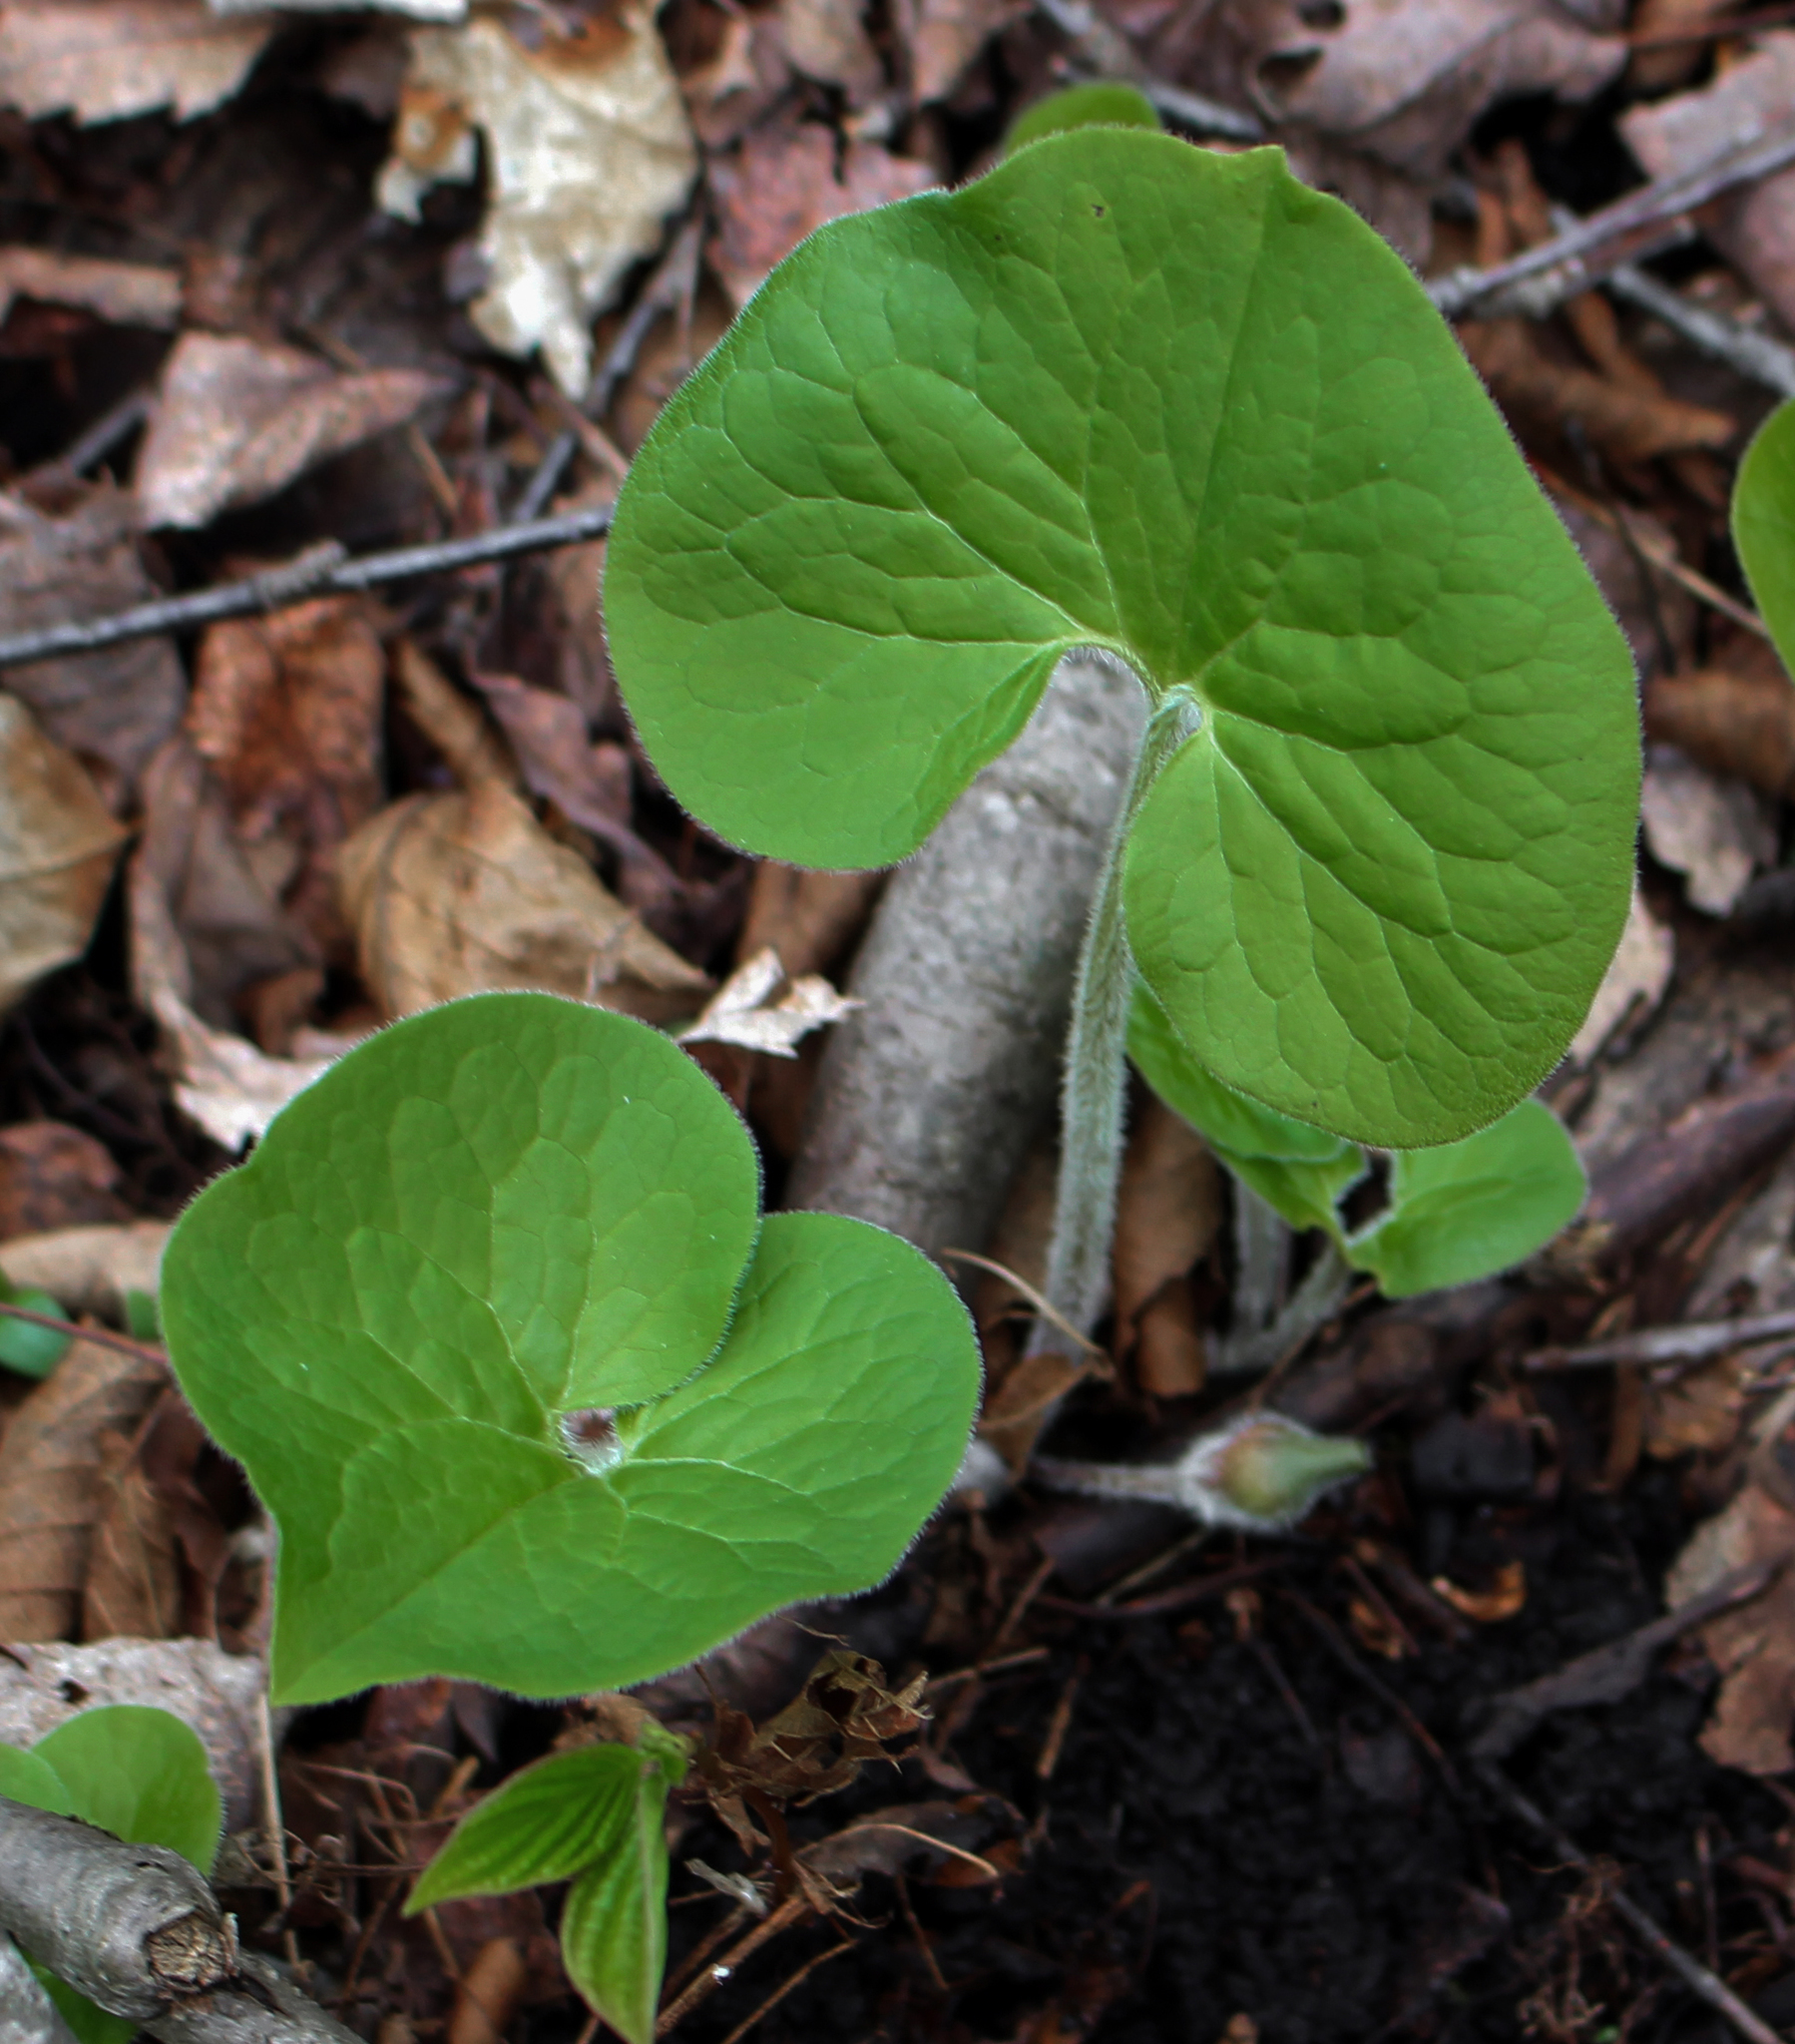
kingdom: Plantae
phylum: Tracheophyta
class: Magnoliopsida
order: Piperales
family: Aristolochiaceae
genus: Asarum
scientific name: Asarum canadense
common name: Wild ginger
